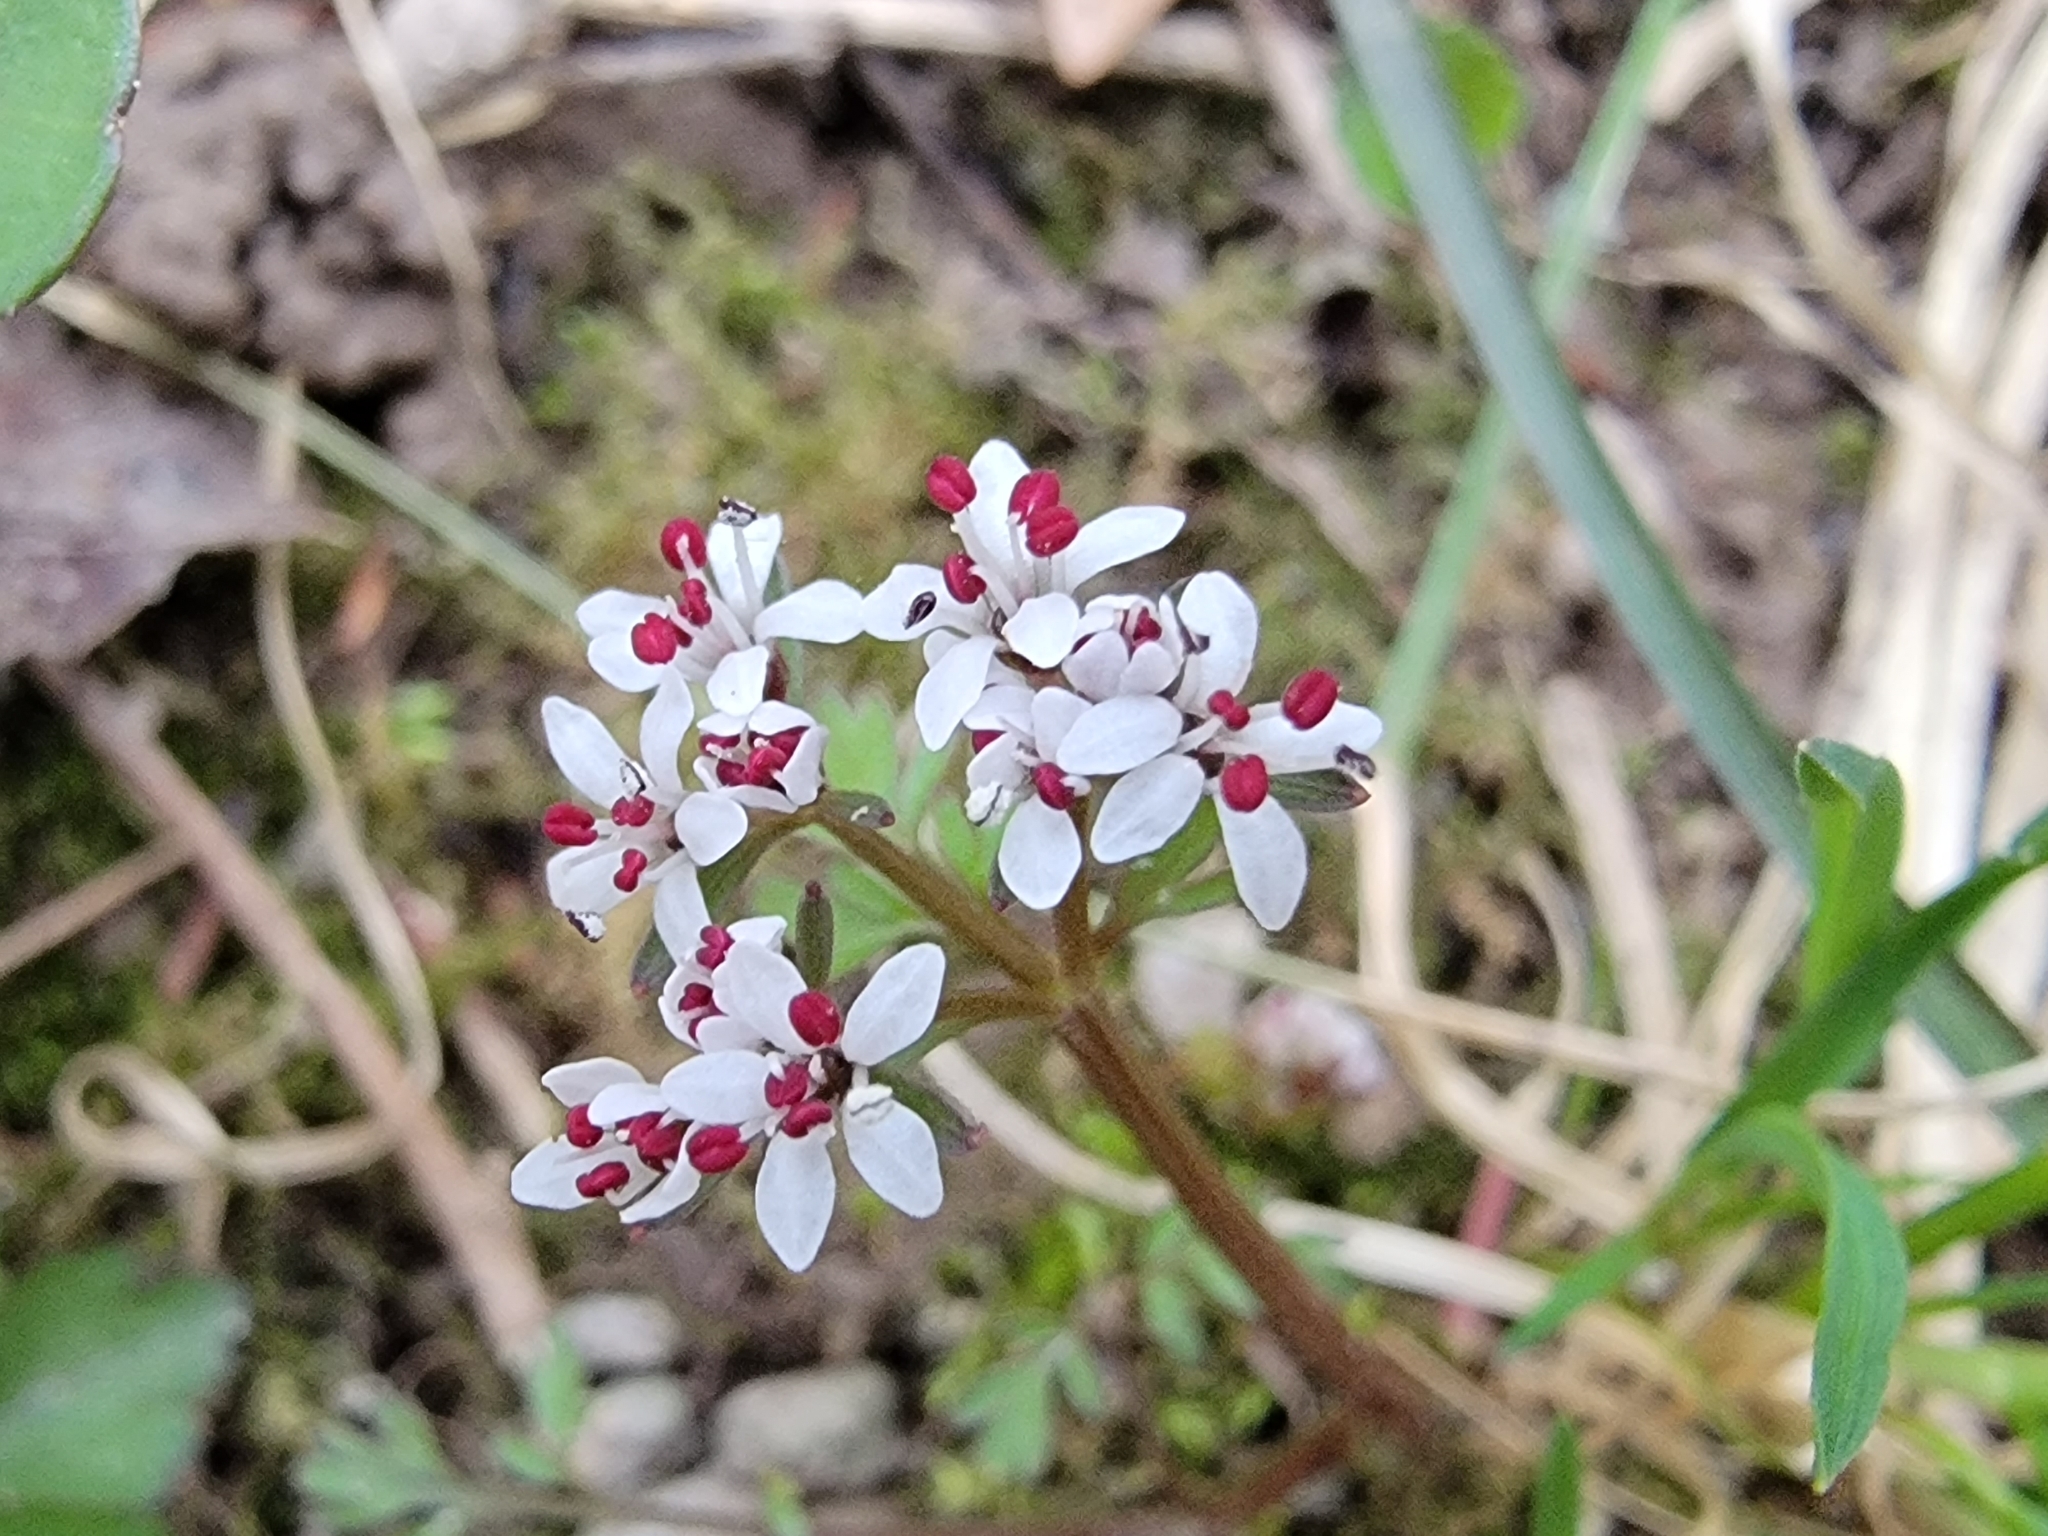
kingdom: Plantae
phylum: Tracheophyta
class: Magnoliopsida
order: Apiales
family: Apiaceae
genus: Erigenia
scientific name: Erigenia bulbosa
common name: Pepper-and-salt
